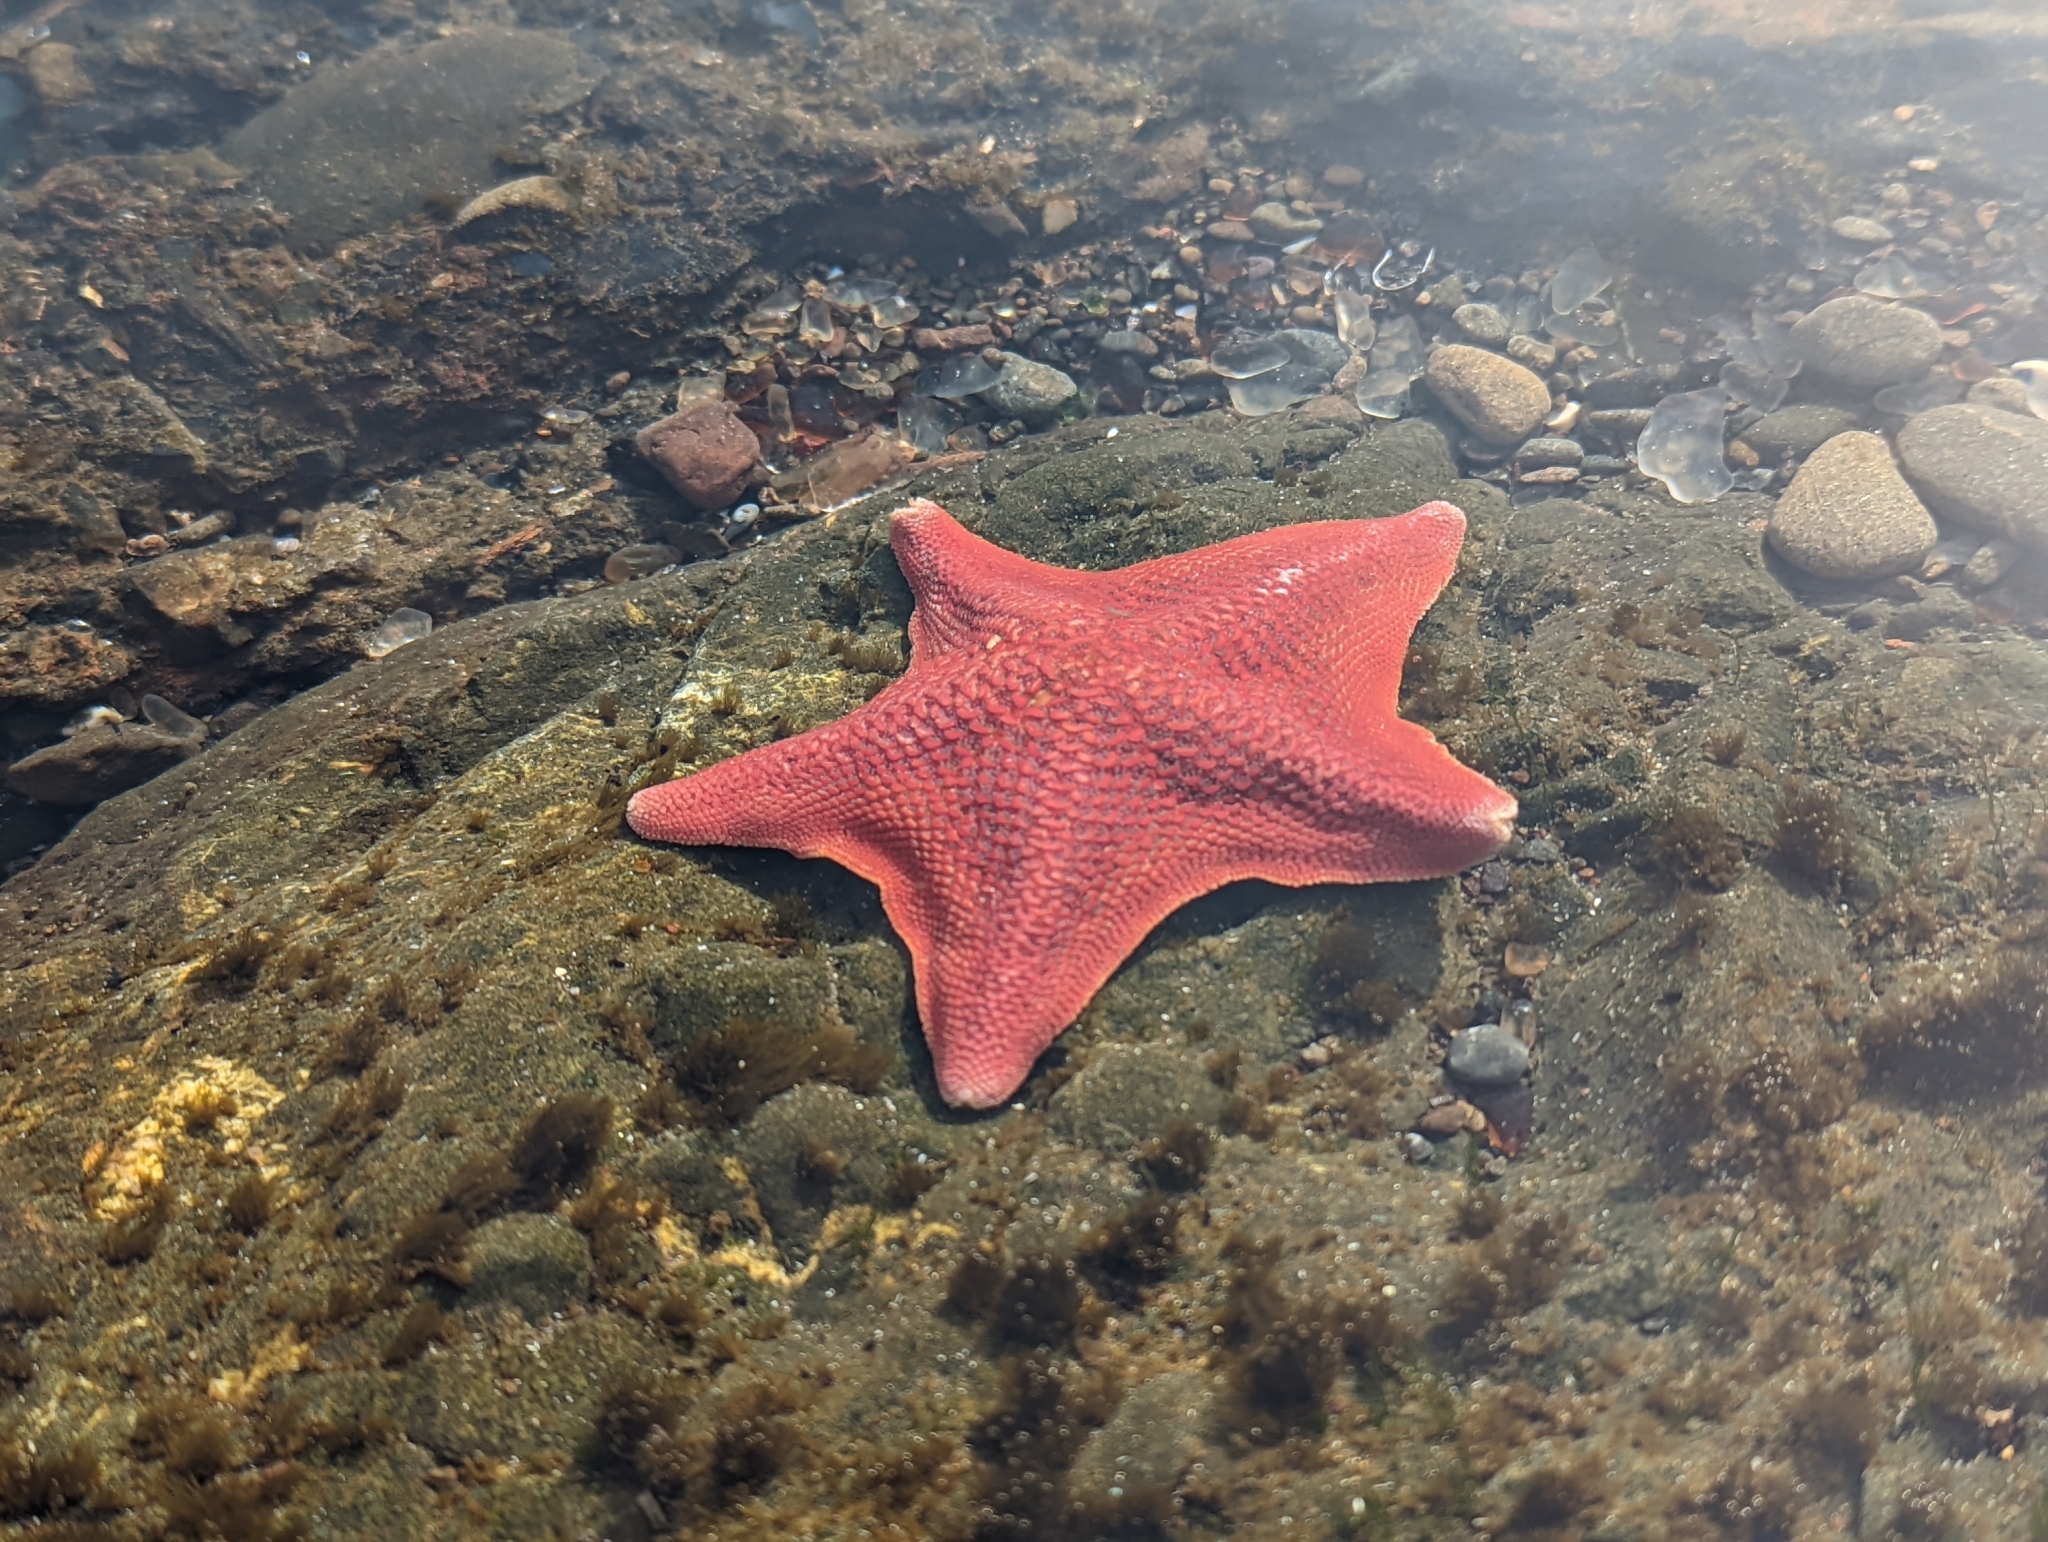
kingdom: Animalia
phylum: Echinodermata
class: Asteroidea
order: Valvatida
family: Asterinidae
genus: Patiria
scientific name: Patiria miniata
